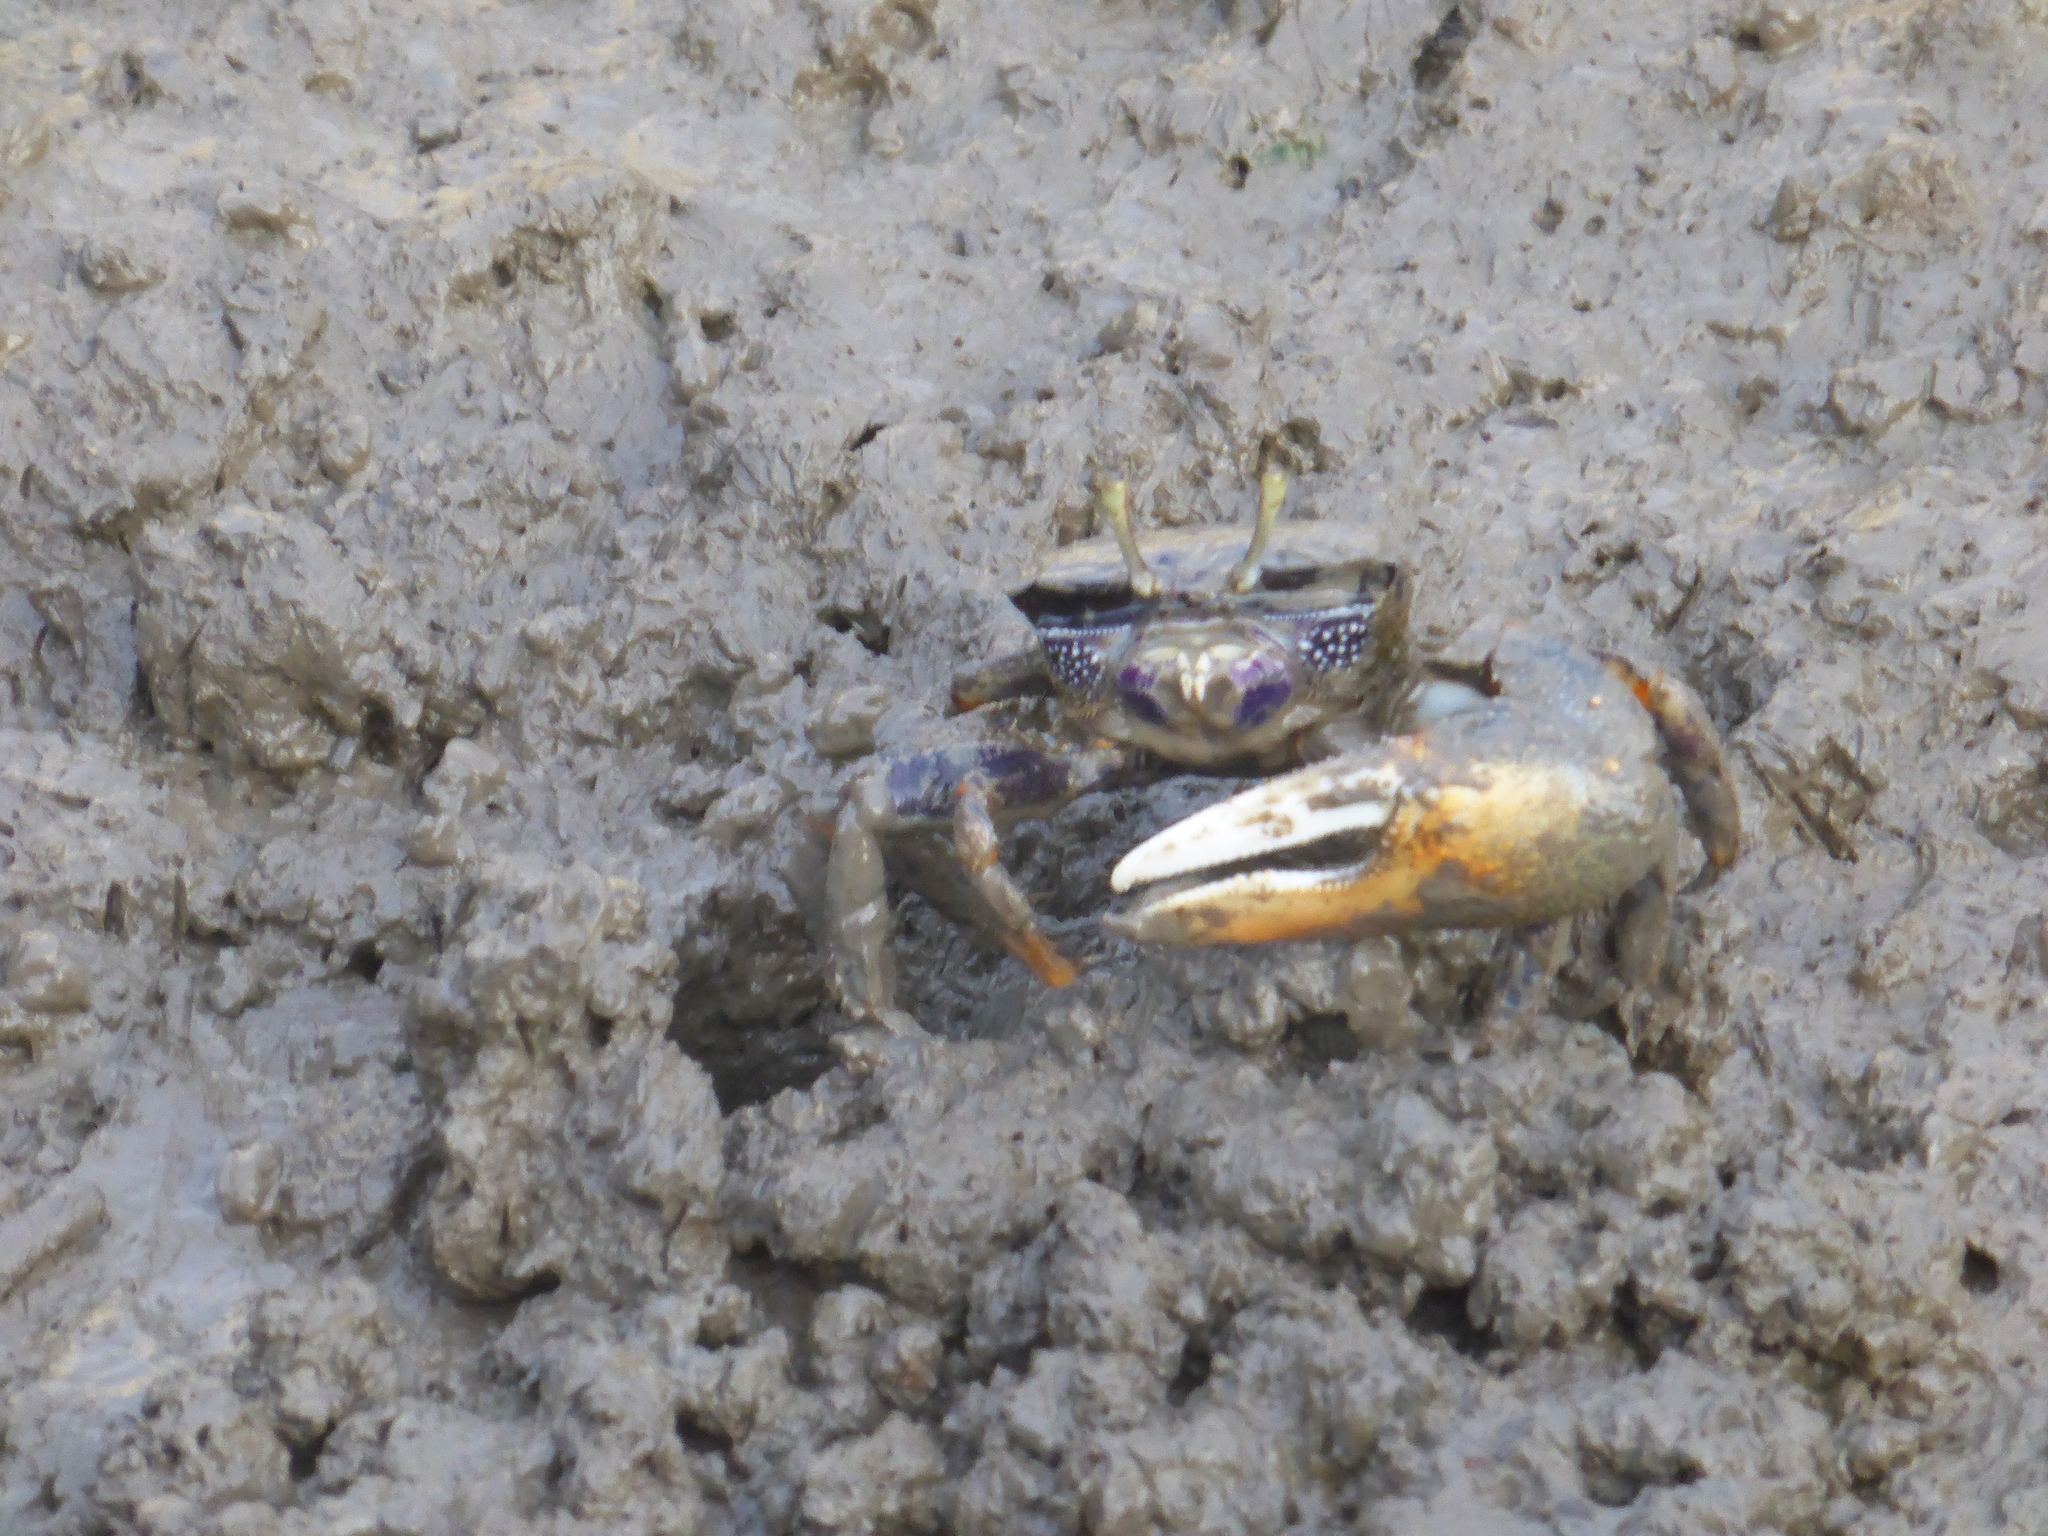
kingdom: Animalia
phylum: Arthropoda
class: Malacostraca
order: Decapoda
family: Ocypodidae
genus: Afruca
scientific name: Afruca tangeri
